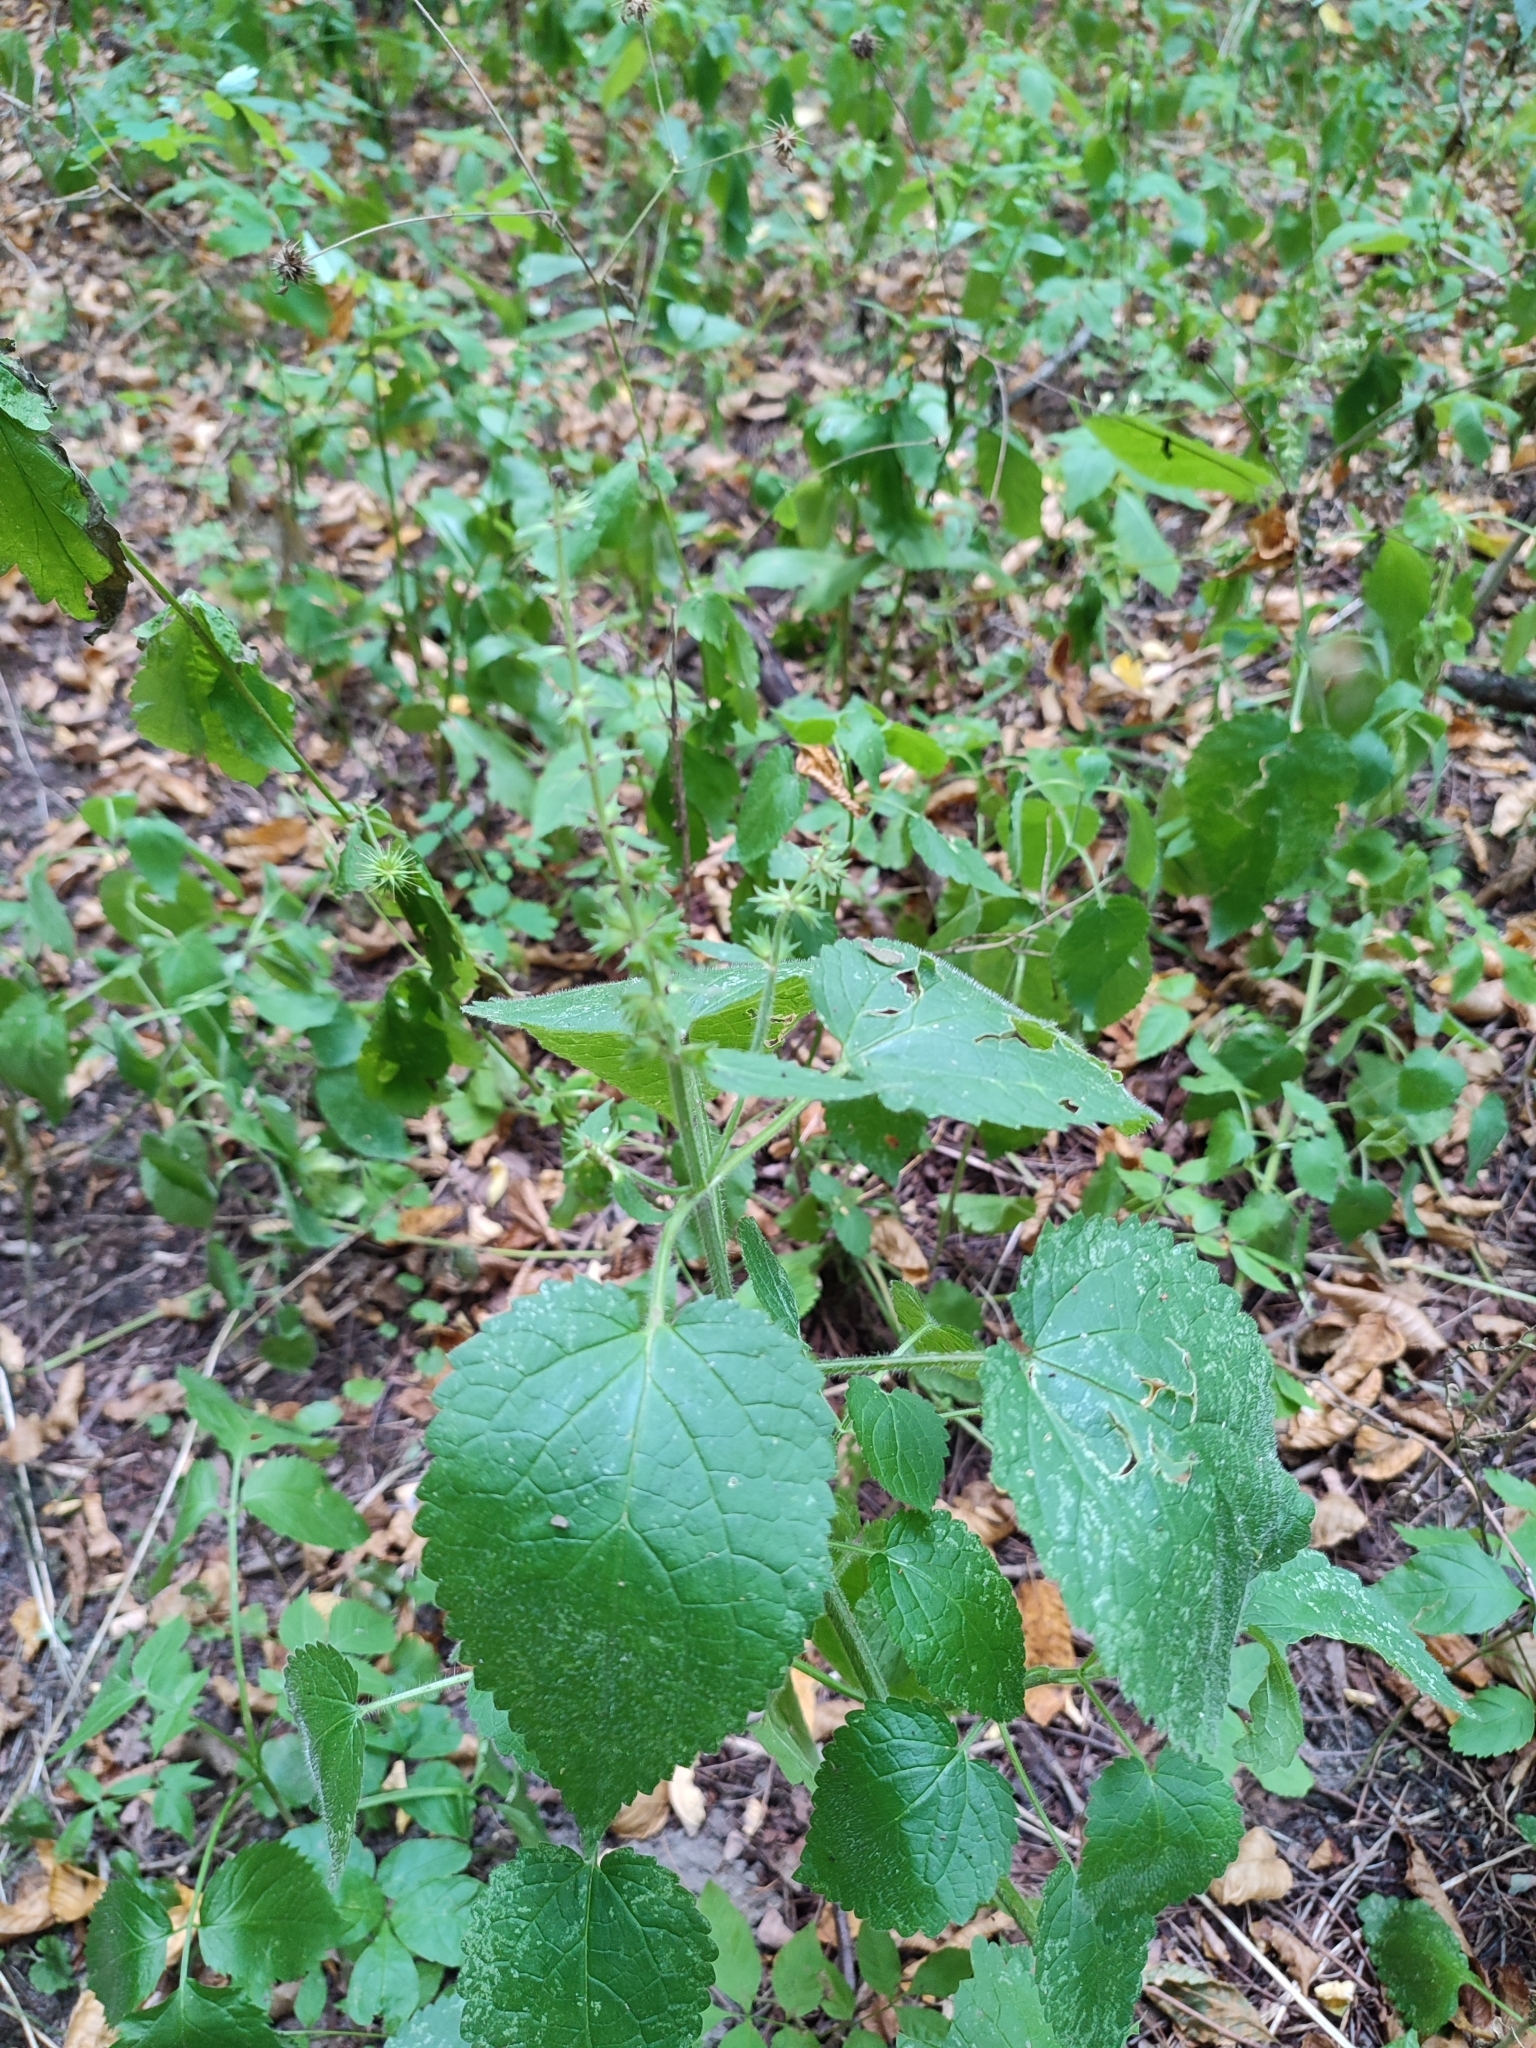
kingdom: Plantae
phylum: Tracheophyta
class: Magnoliopsida
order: Lamiales
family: Lamiaceae
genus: Stachys
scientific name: Stachys sylvatica
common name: Hedge woundwort
